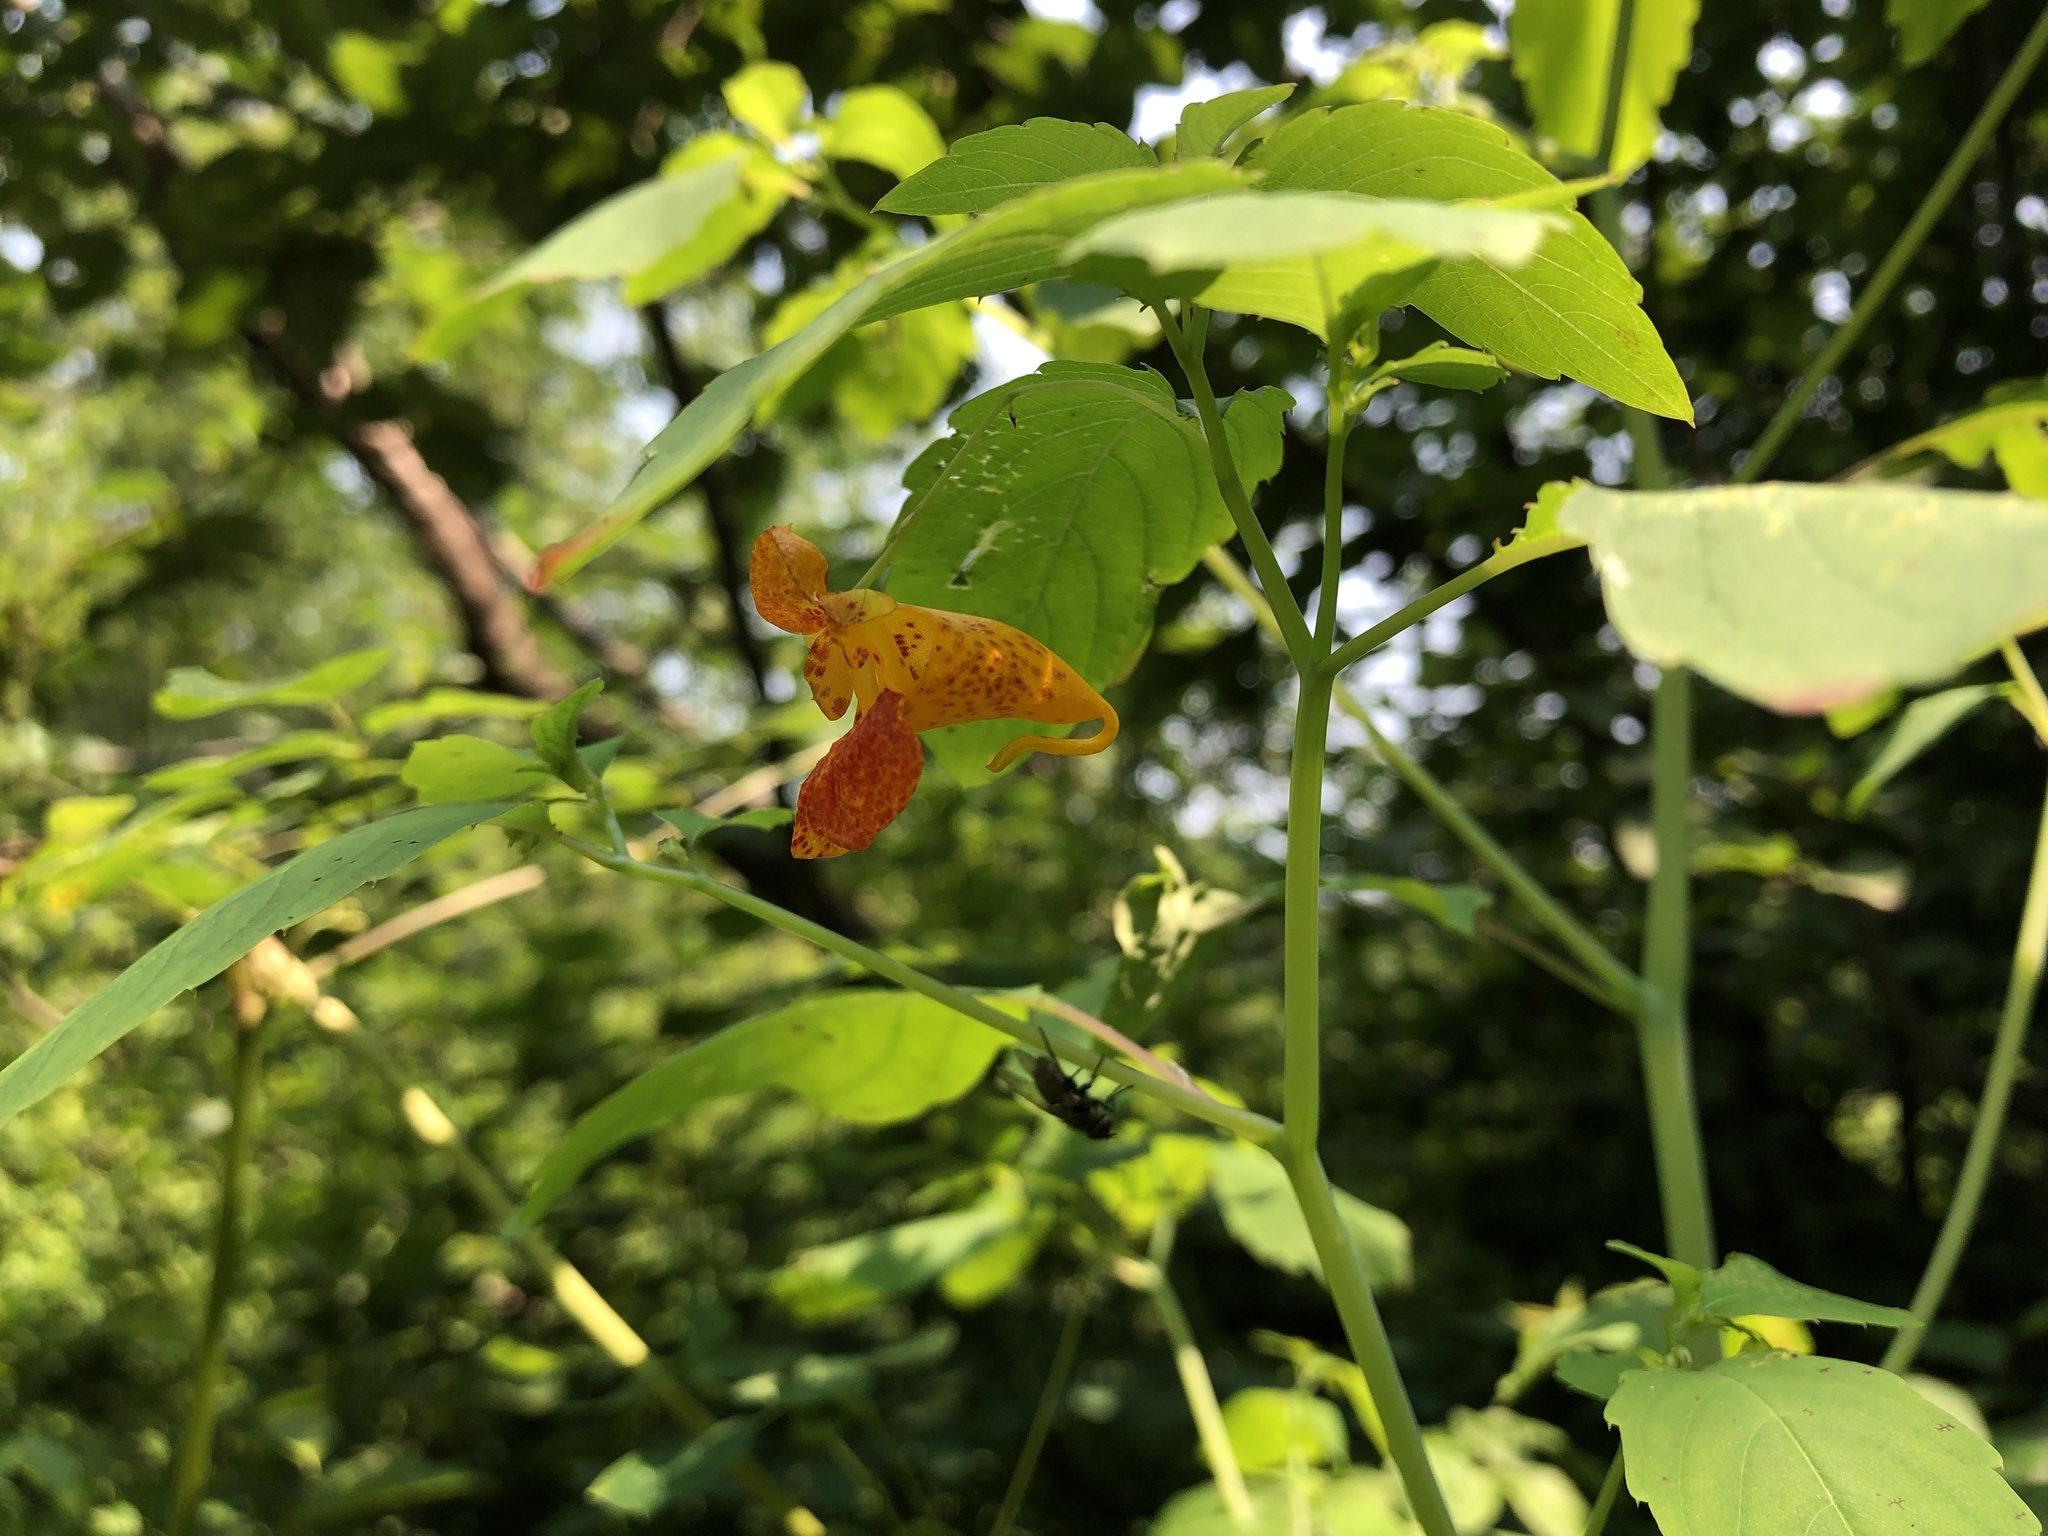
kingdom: Plantae
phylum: Tracheophyta
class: Magnoliopsida
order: Ericales
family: Balsaminaceae
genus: Impatiens
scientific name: Impatiens capensis
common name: Orange balsam
